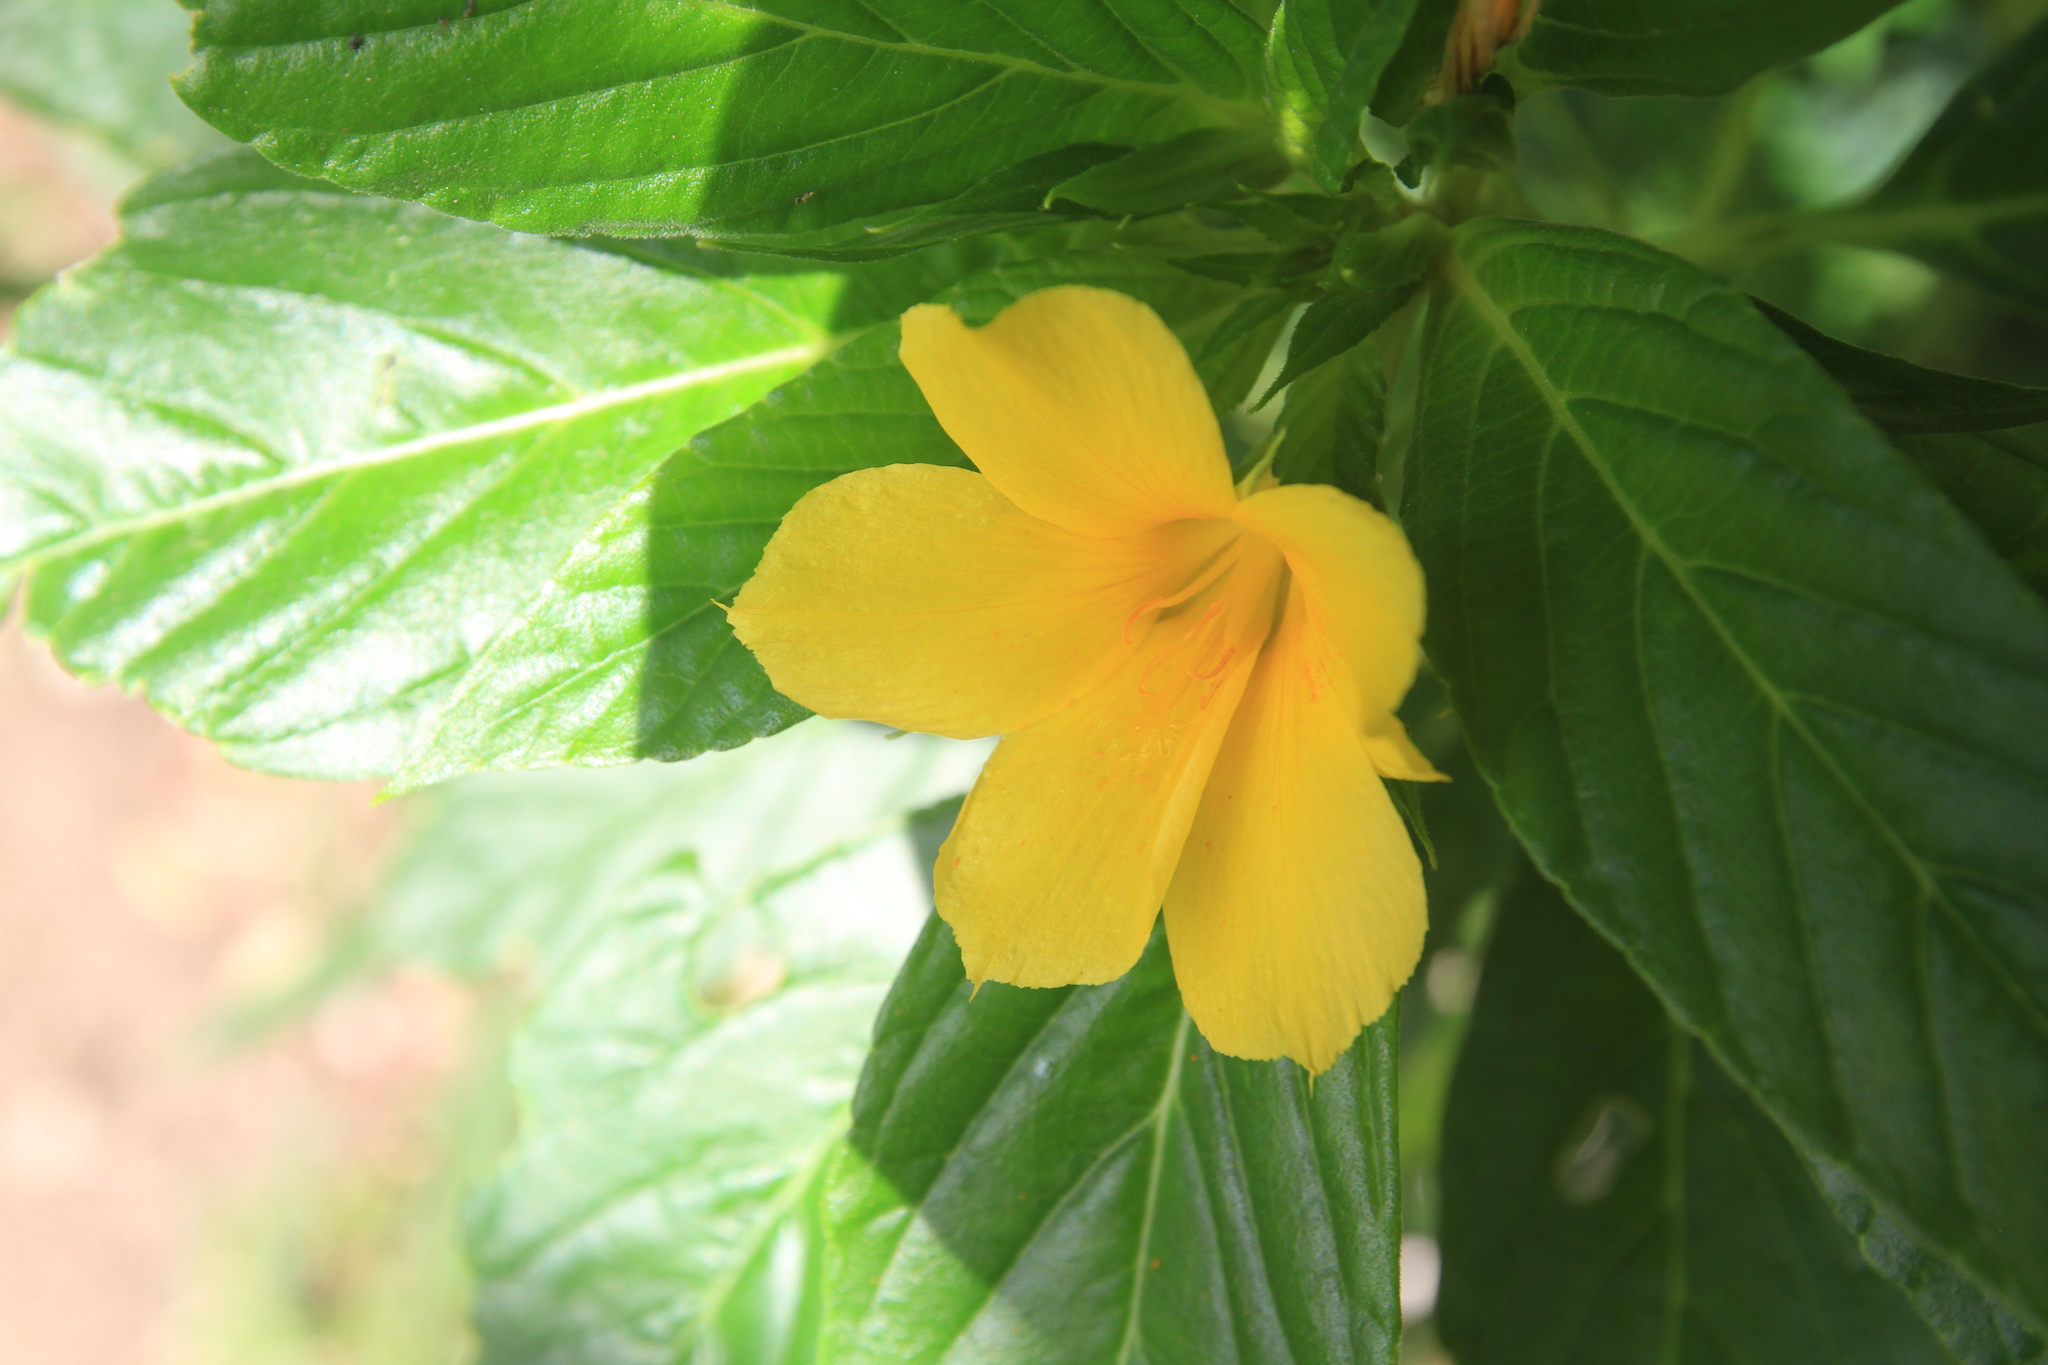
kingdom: Plantae
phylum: Tracheophyta
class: Magnoliopsida
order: Malpighiales
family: Turneraceae
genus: Turnera
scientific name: Turnera ulmifolia
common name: Ramgoat dashalong
